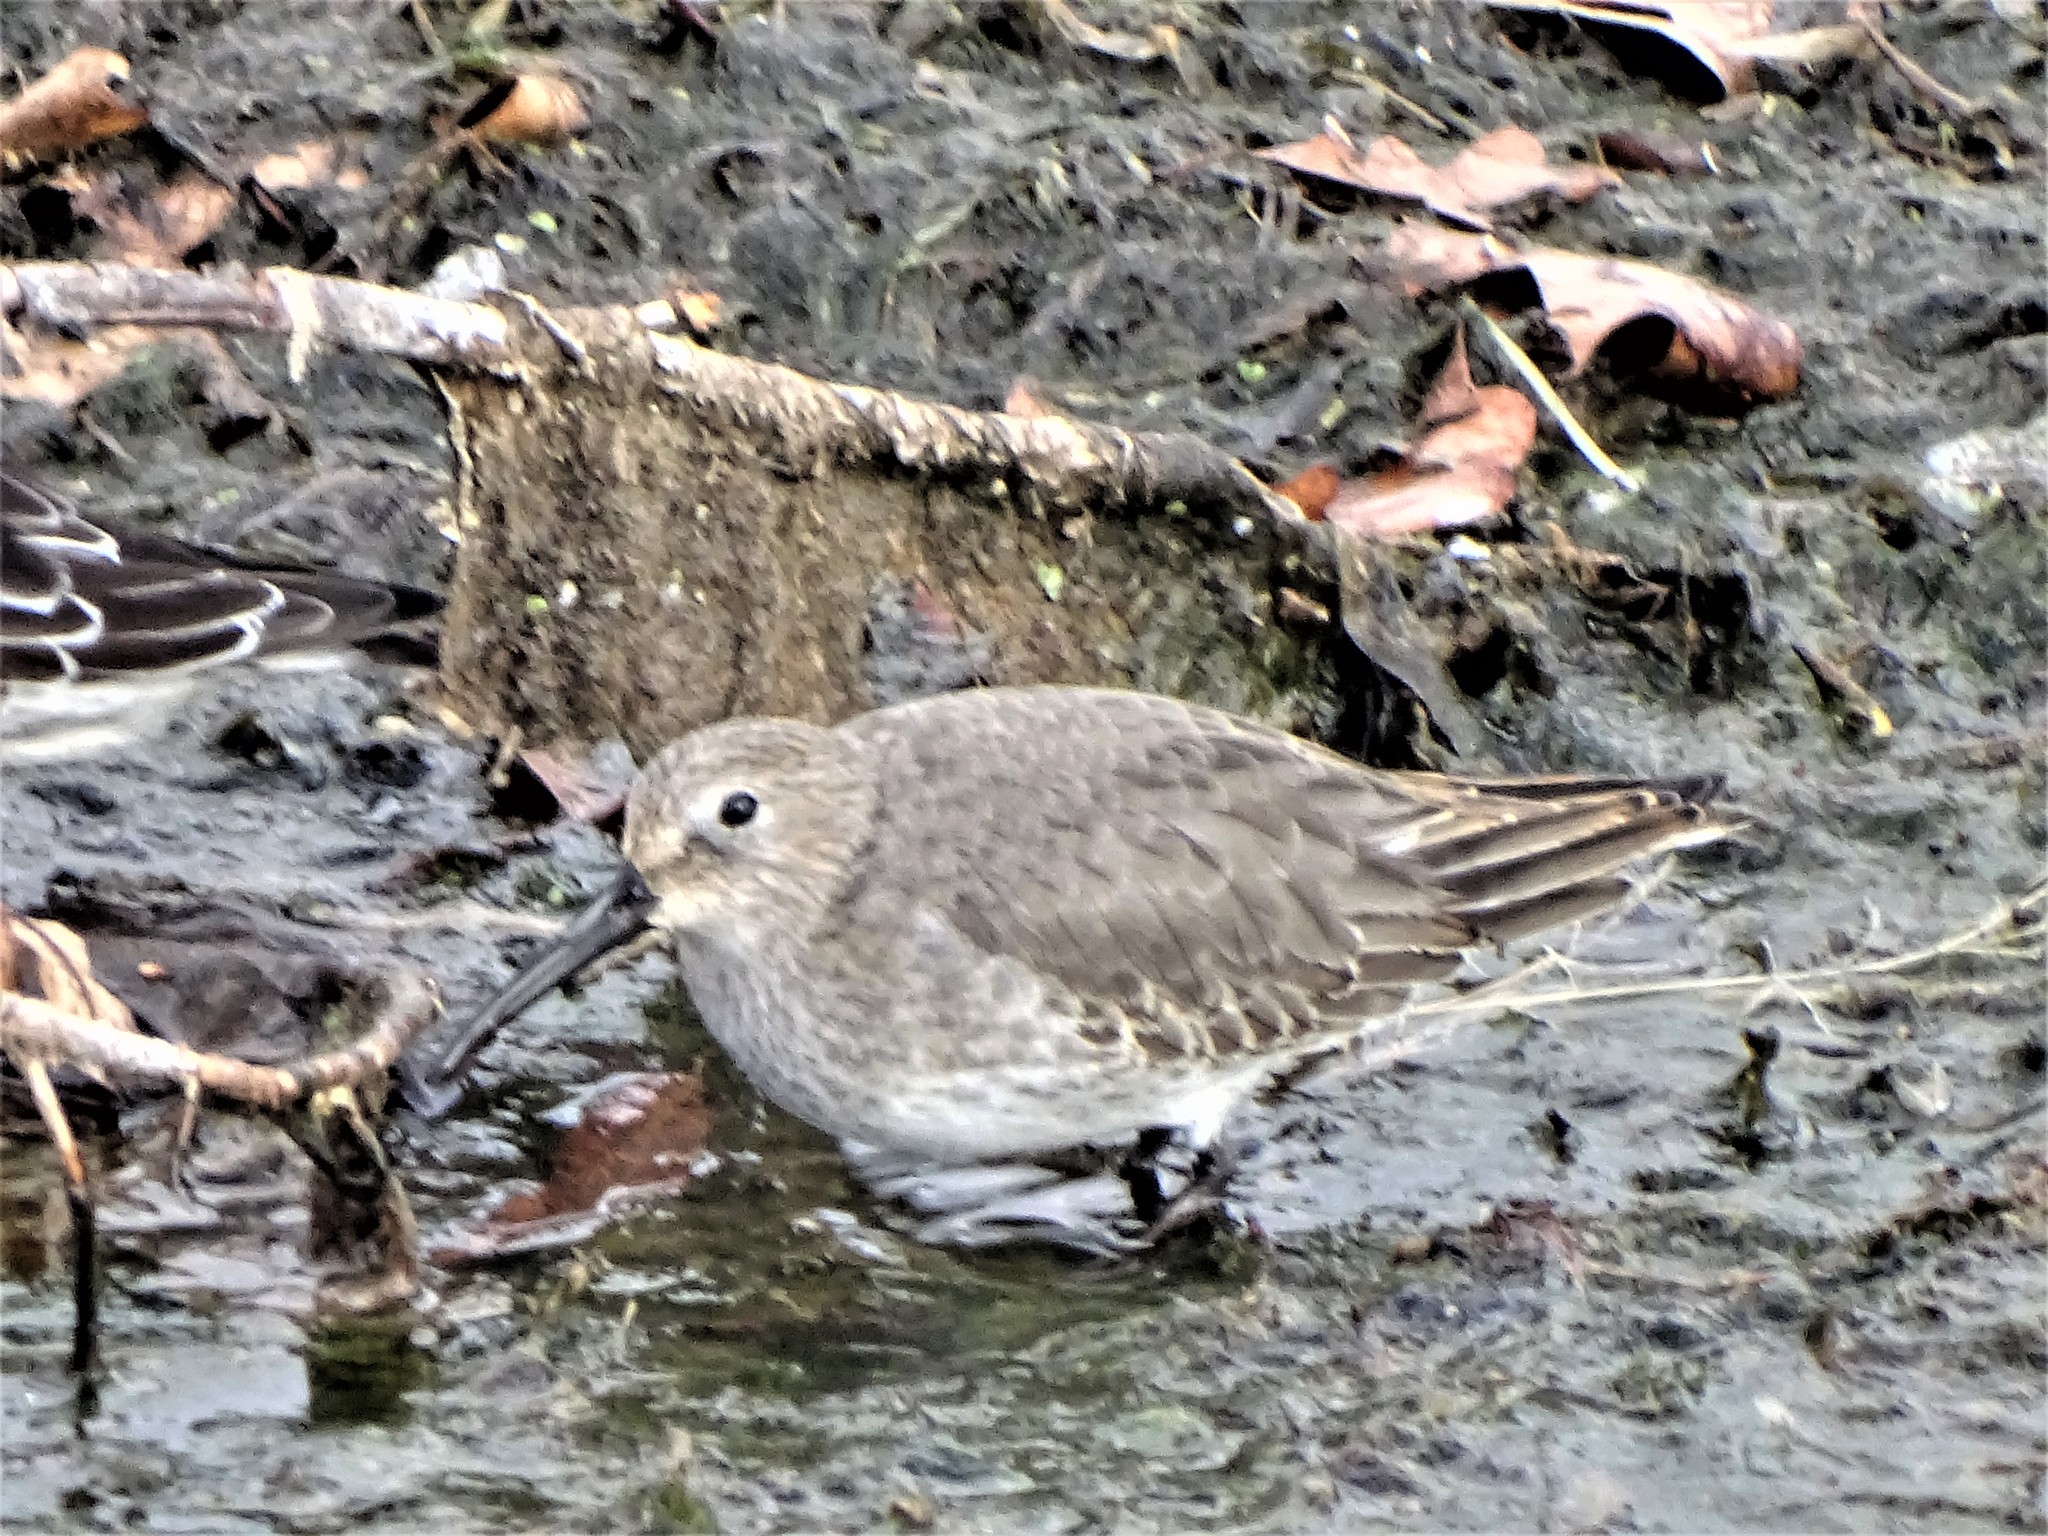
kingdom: Animalia
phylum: Chordata
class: Aves
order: Charadriiformes
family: Scolopacidae
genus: Calidris
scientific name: Calidris alpina
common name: Dunlin
